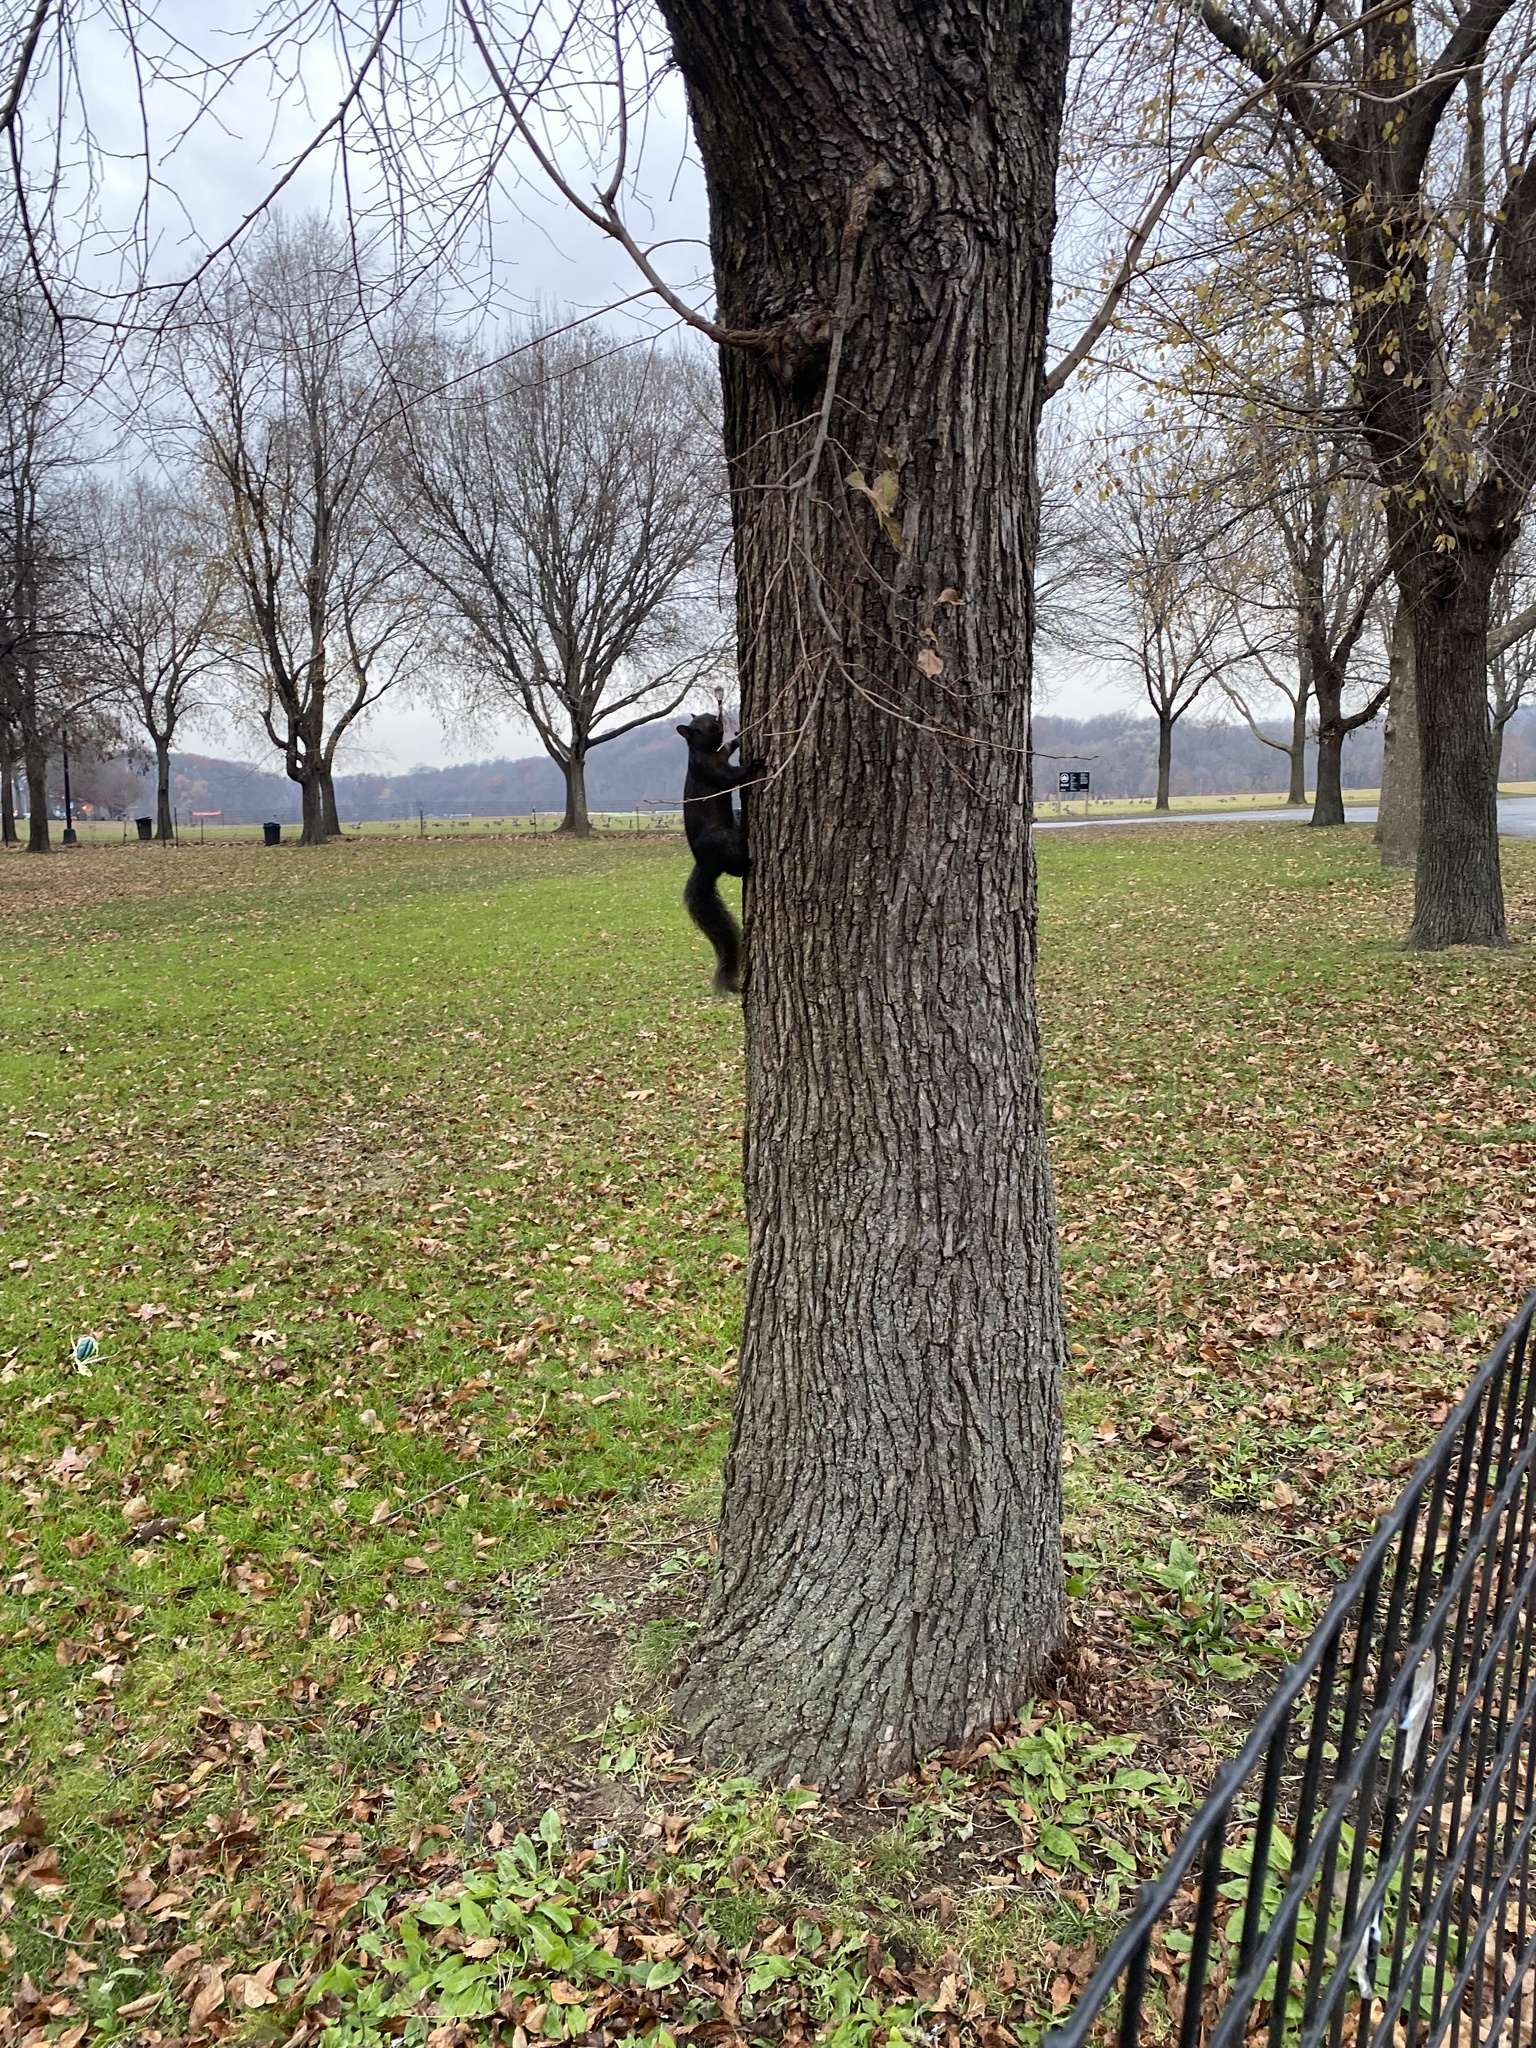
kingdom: Animalia
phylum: Chordata
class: Mammalia
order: Rodentia
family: Sciuridae
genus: Sciurus
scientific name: Sciurus carolinensis
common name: Eastern gray squirrel
